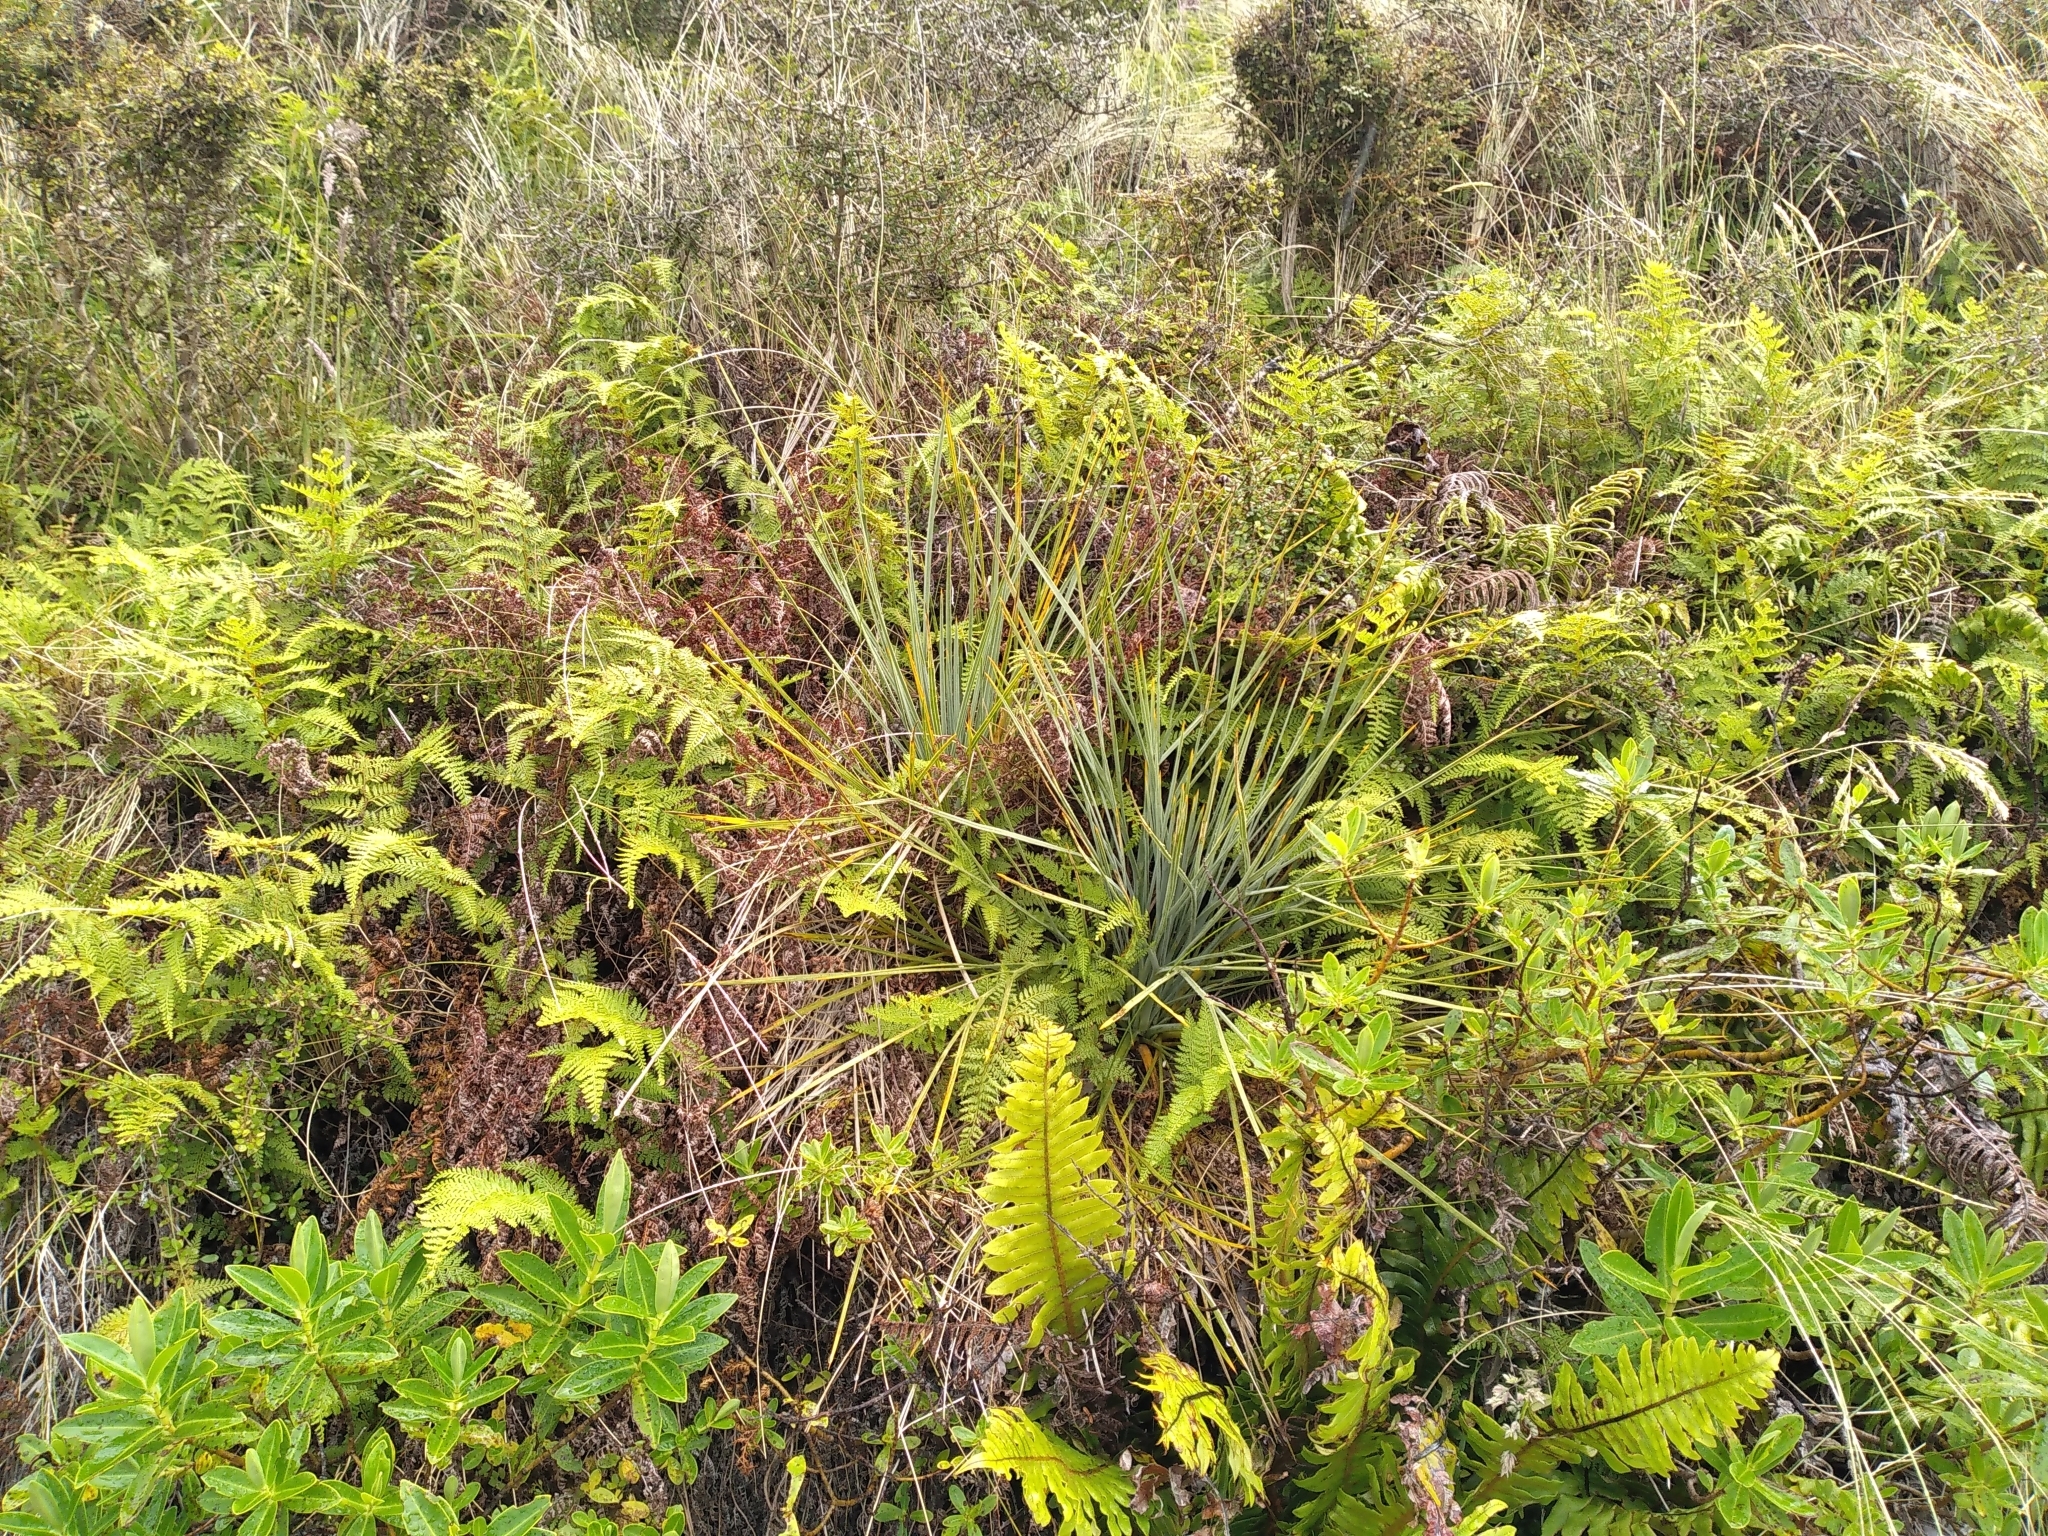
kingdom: Plantae
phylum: Tracheophyta
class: Magnoliopsida
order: Apiales
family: Apiaceae
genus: Aciphylla
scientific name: Aciphylla squarrosa
